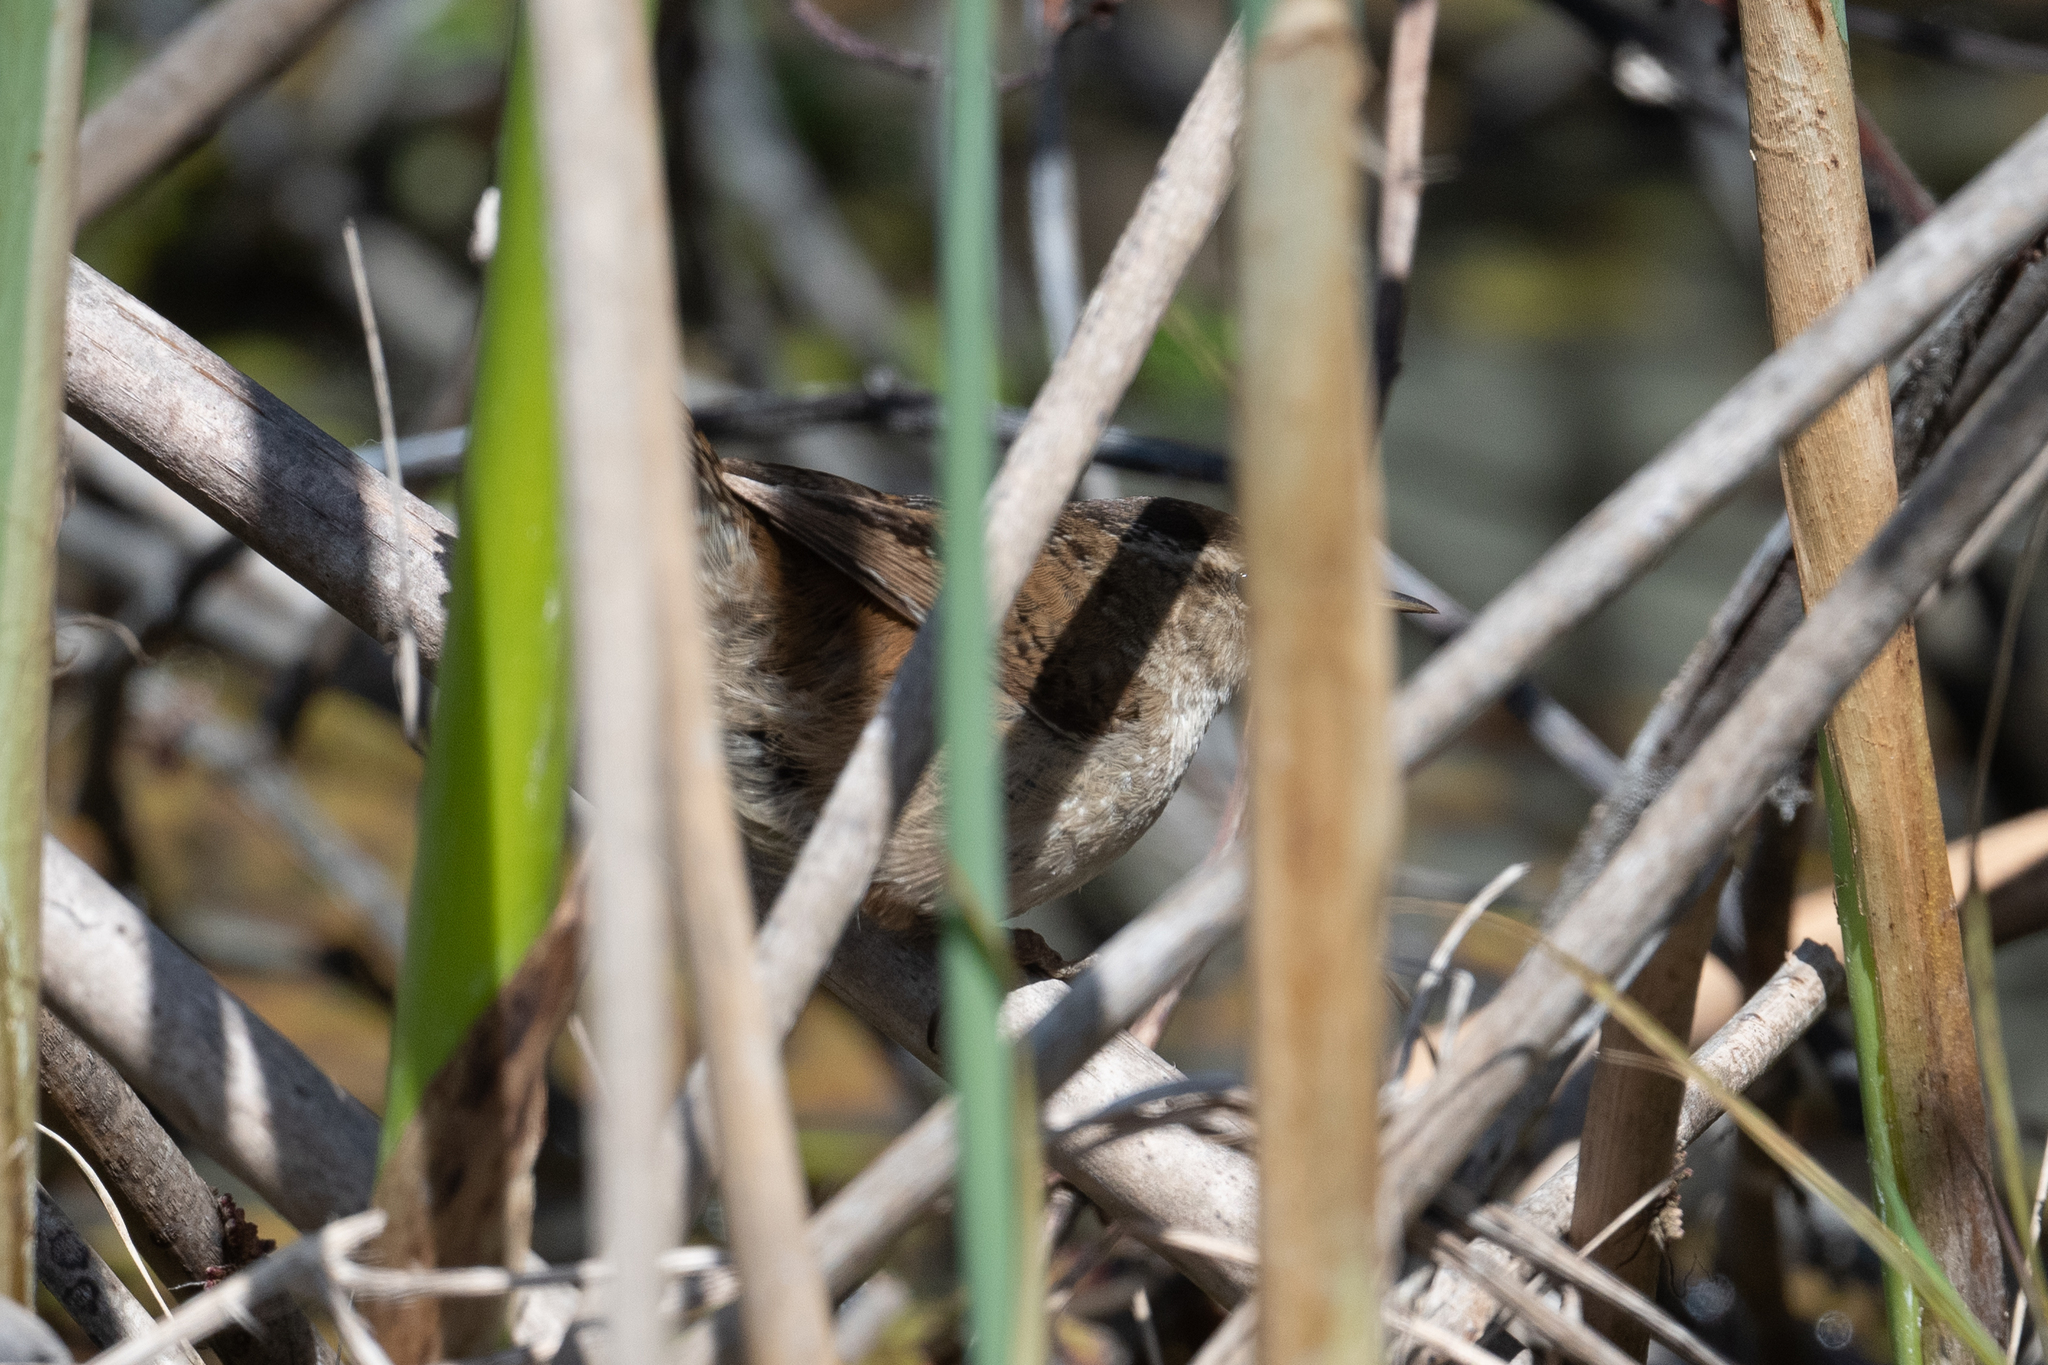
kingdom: Animalia
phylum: Chordata
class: Aves
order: Passeriformes
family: Troglodytidae
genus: Cistothorus
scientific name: Cistothorus palustris
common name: Marsh wren
